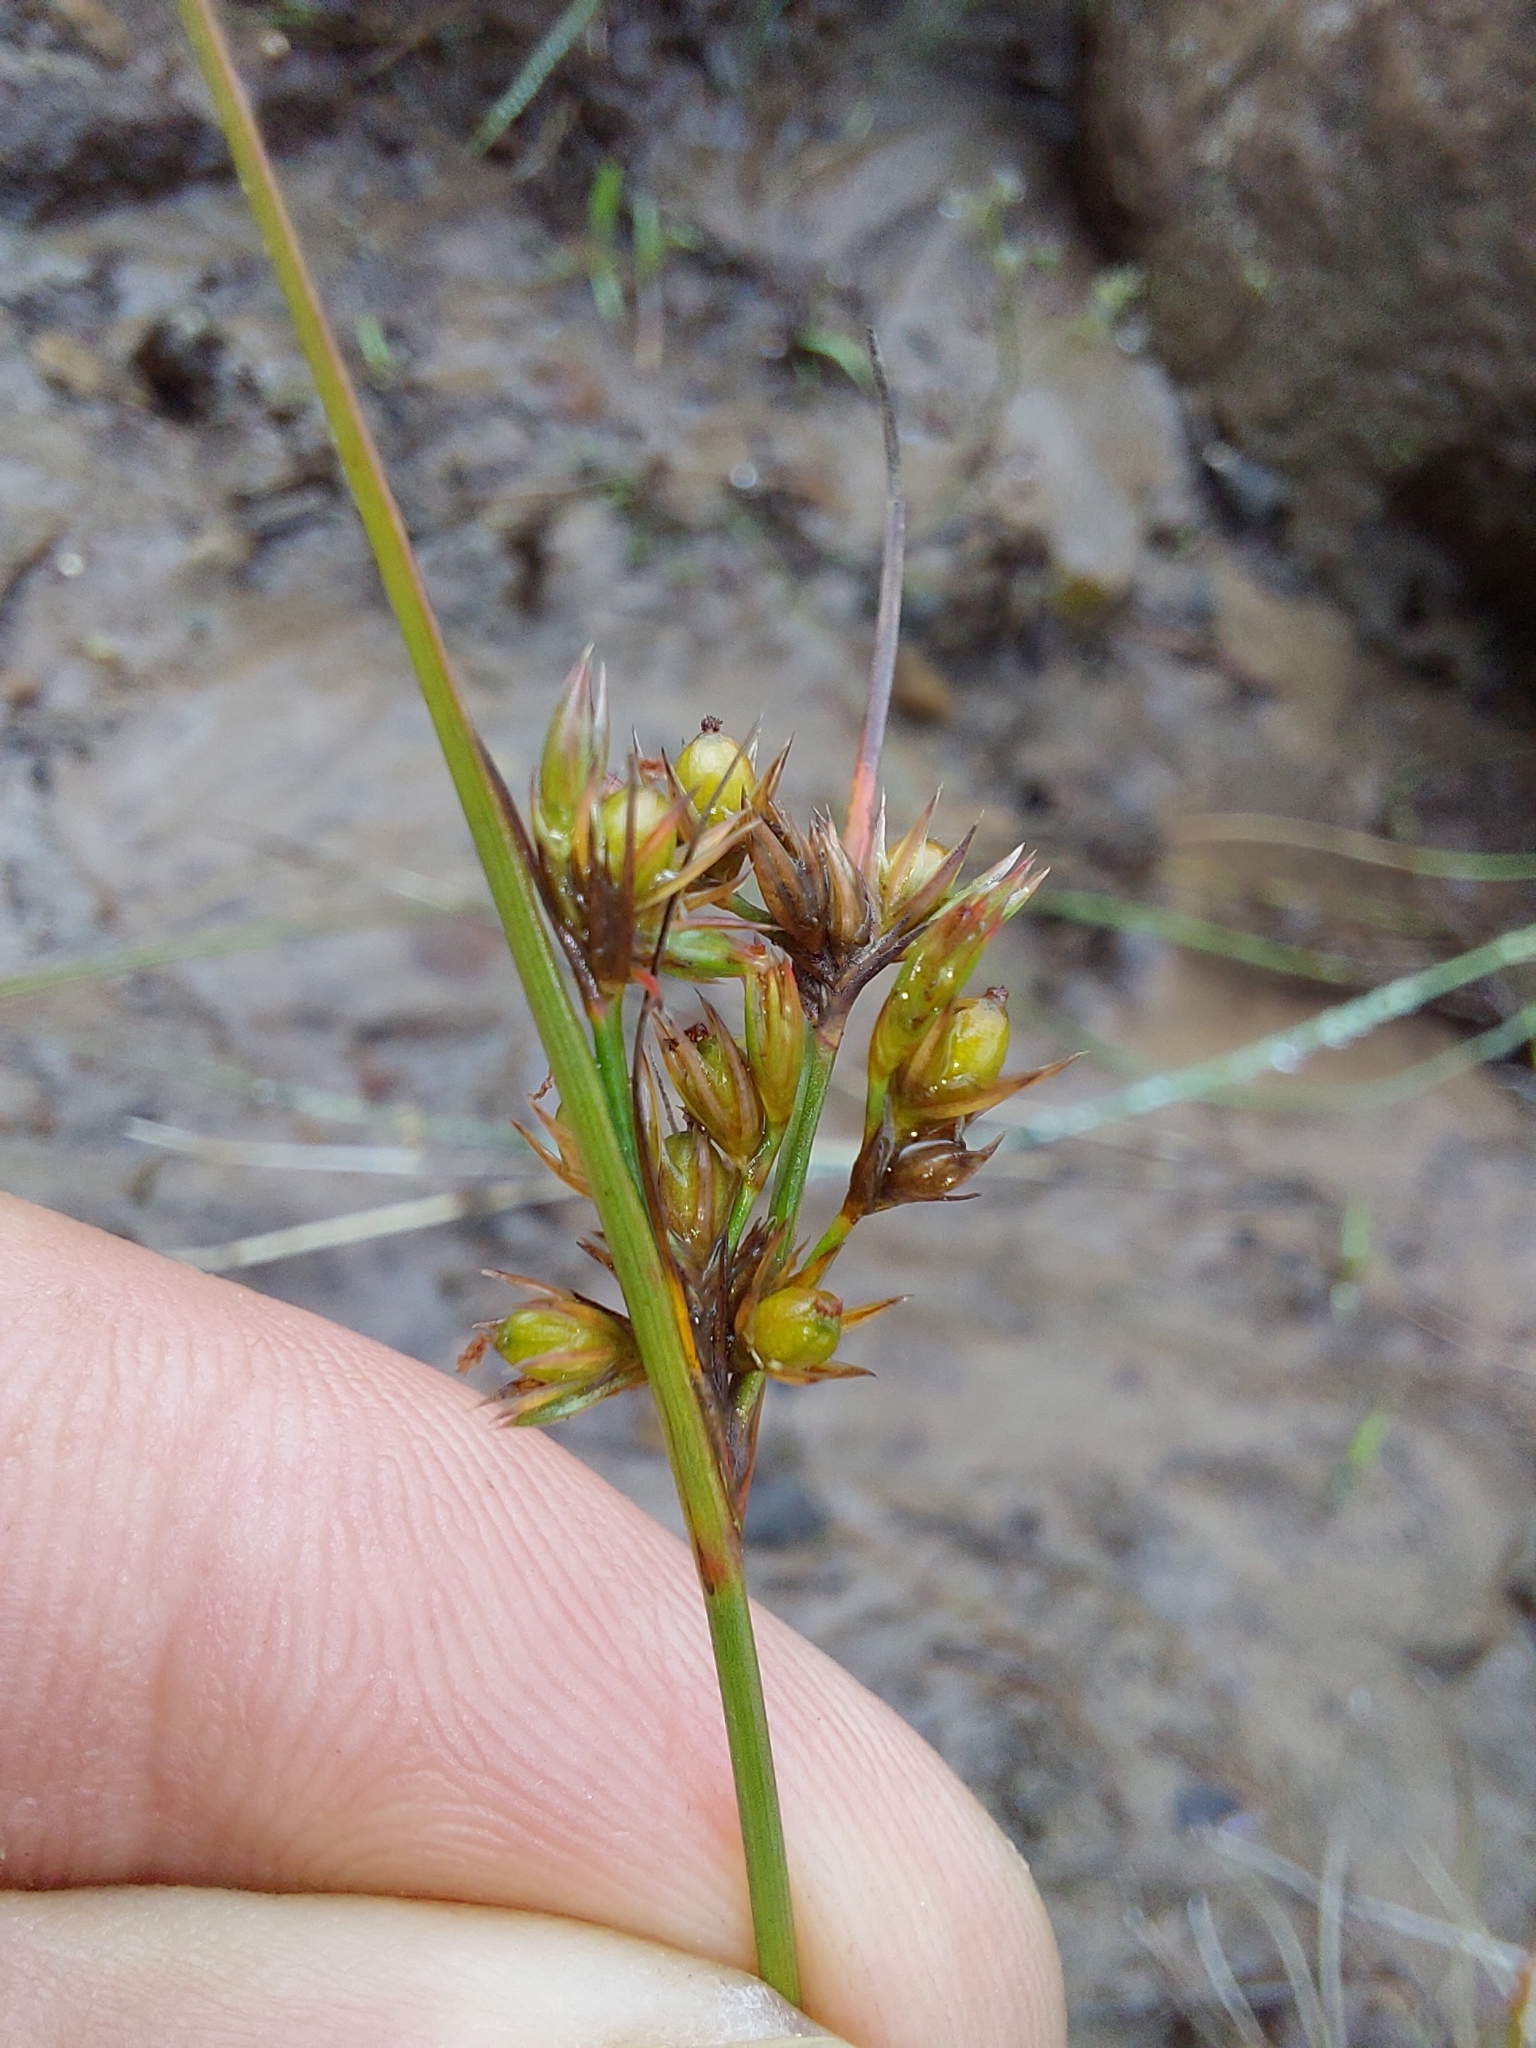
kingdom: Plantae
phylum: Tracheophyta
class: Liliopsida
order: Poales
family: Juncaceae
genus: Juncus
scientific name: Juncus tenuis
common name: Slender rush
